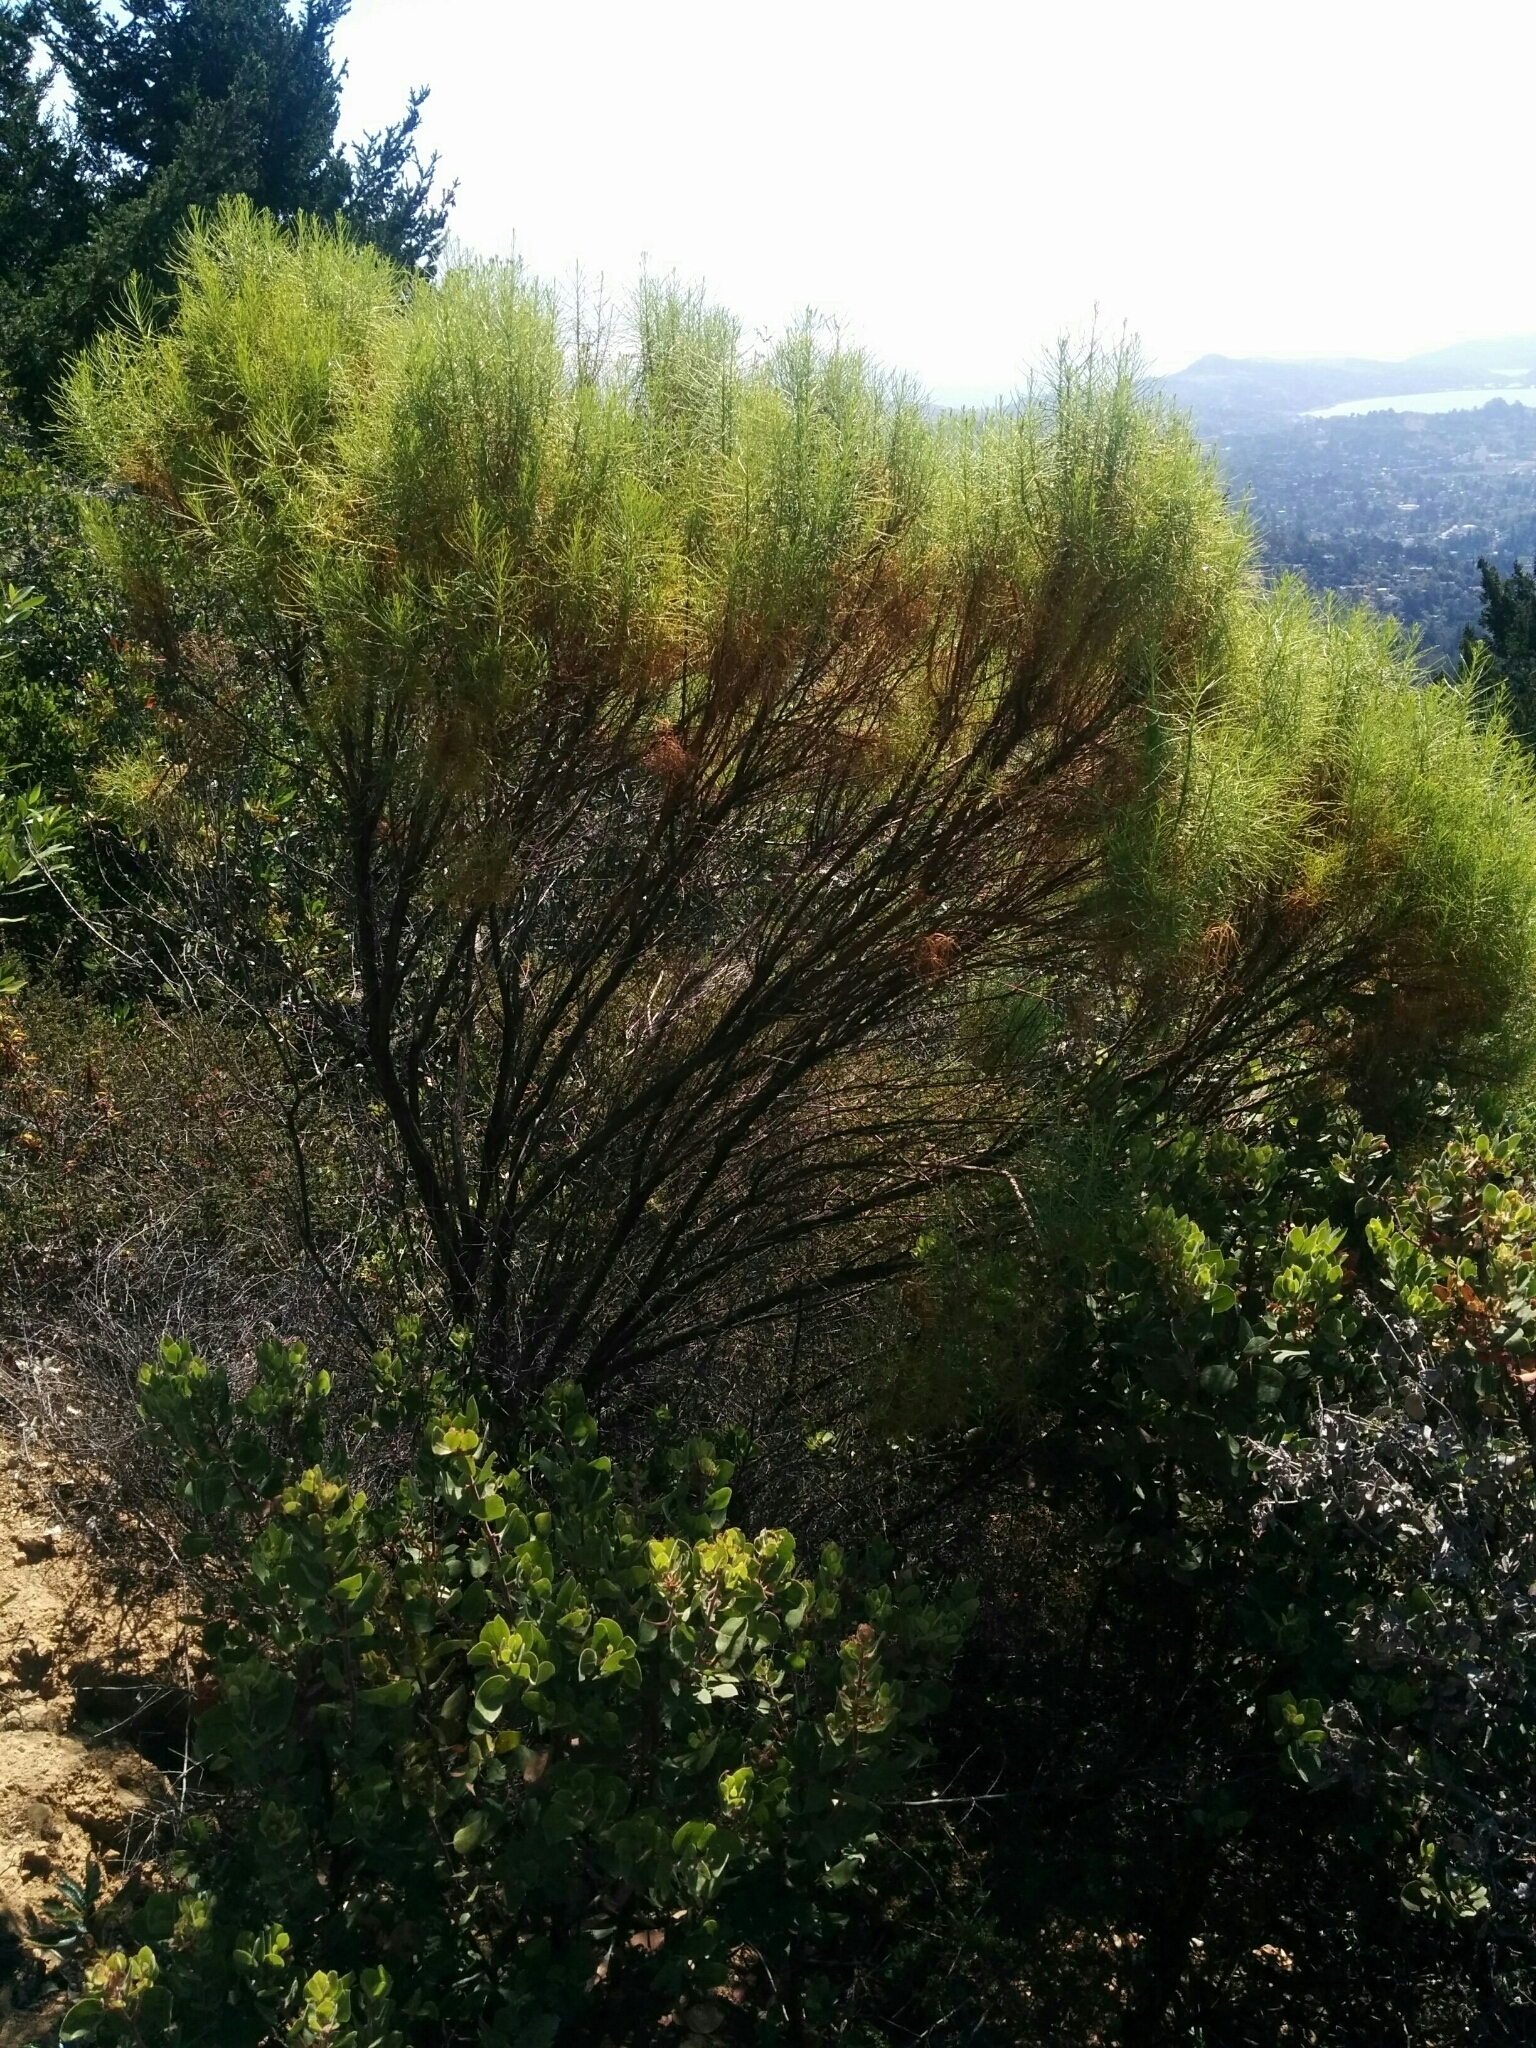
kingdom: Plantae
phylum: Tracheophyta
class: Magnoliopsida
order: Asterales
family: Asteraceae
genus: Ericameria
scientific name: Ericameria arborescens
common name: Goldenfleece
